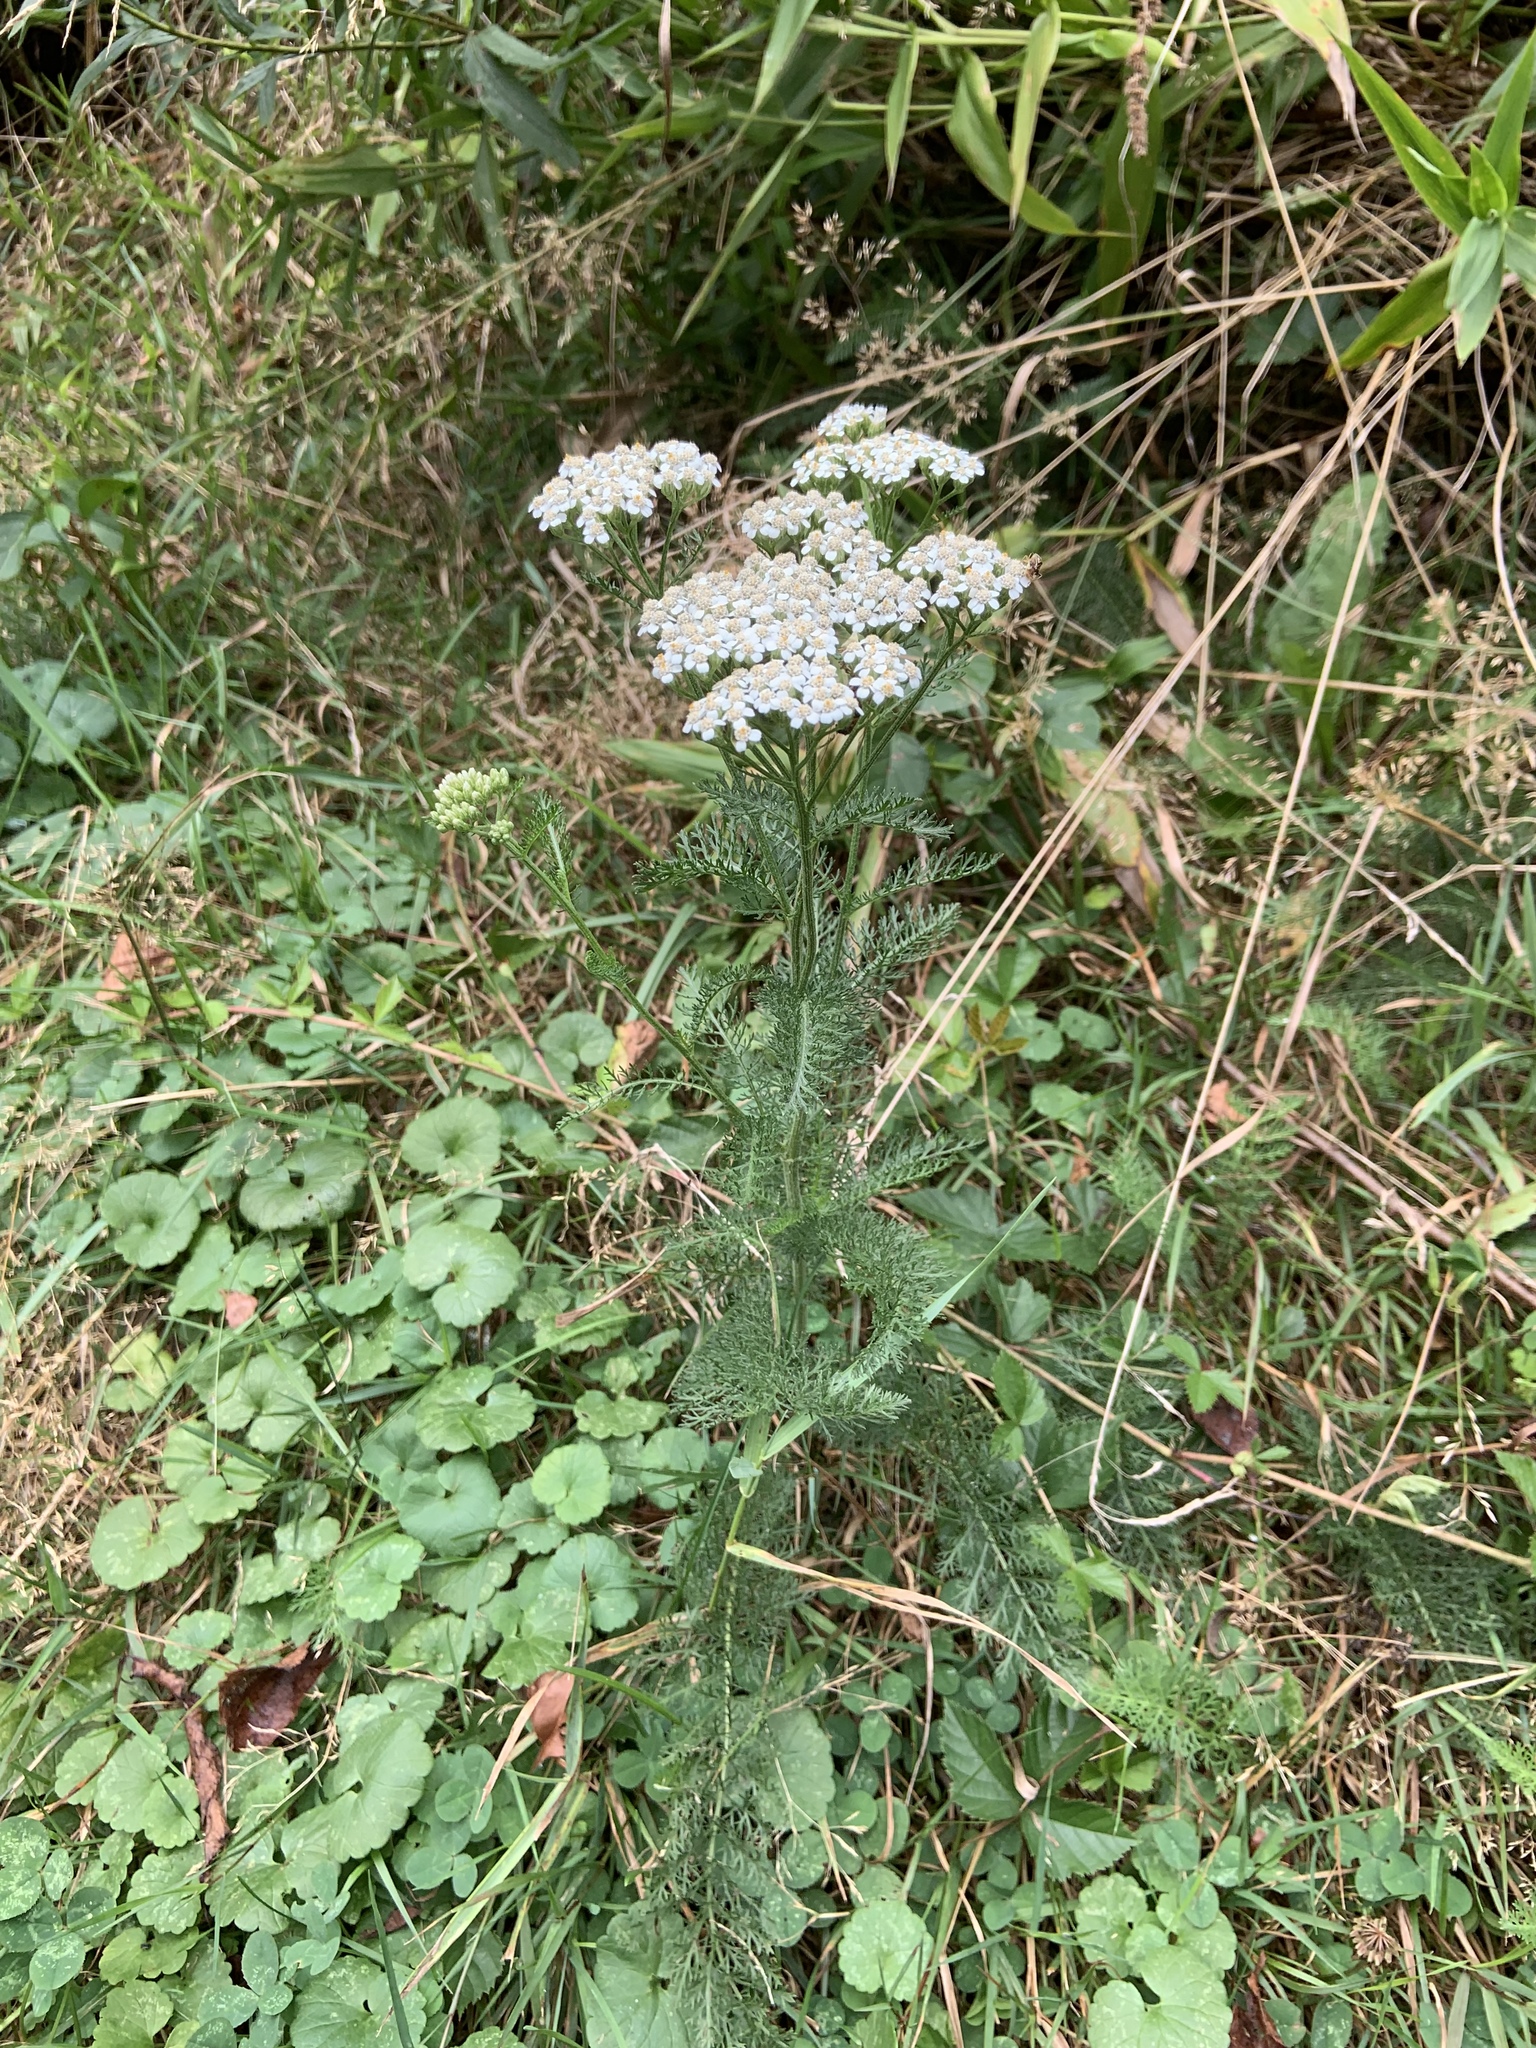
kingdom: Plantae
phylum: Tracheophyta
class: Magnoliopsida
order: Asterales
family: Asteraceae
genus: Achillea
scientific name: Achillea millefolium
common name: Yarrow
